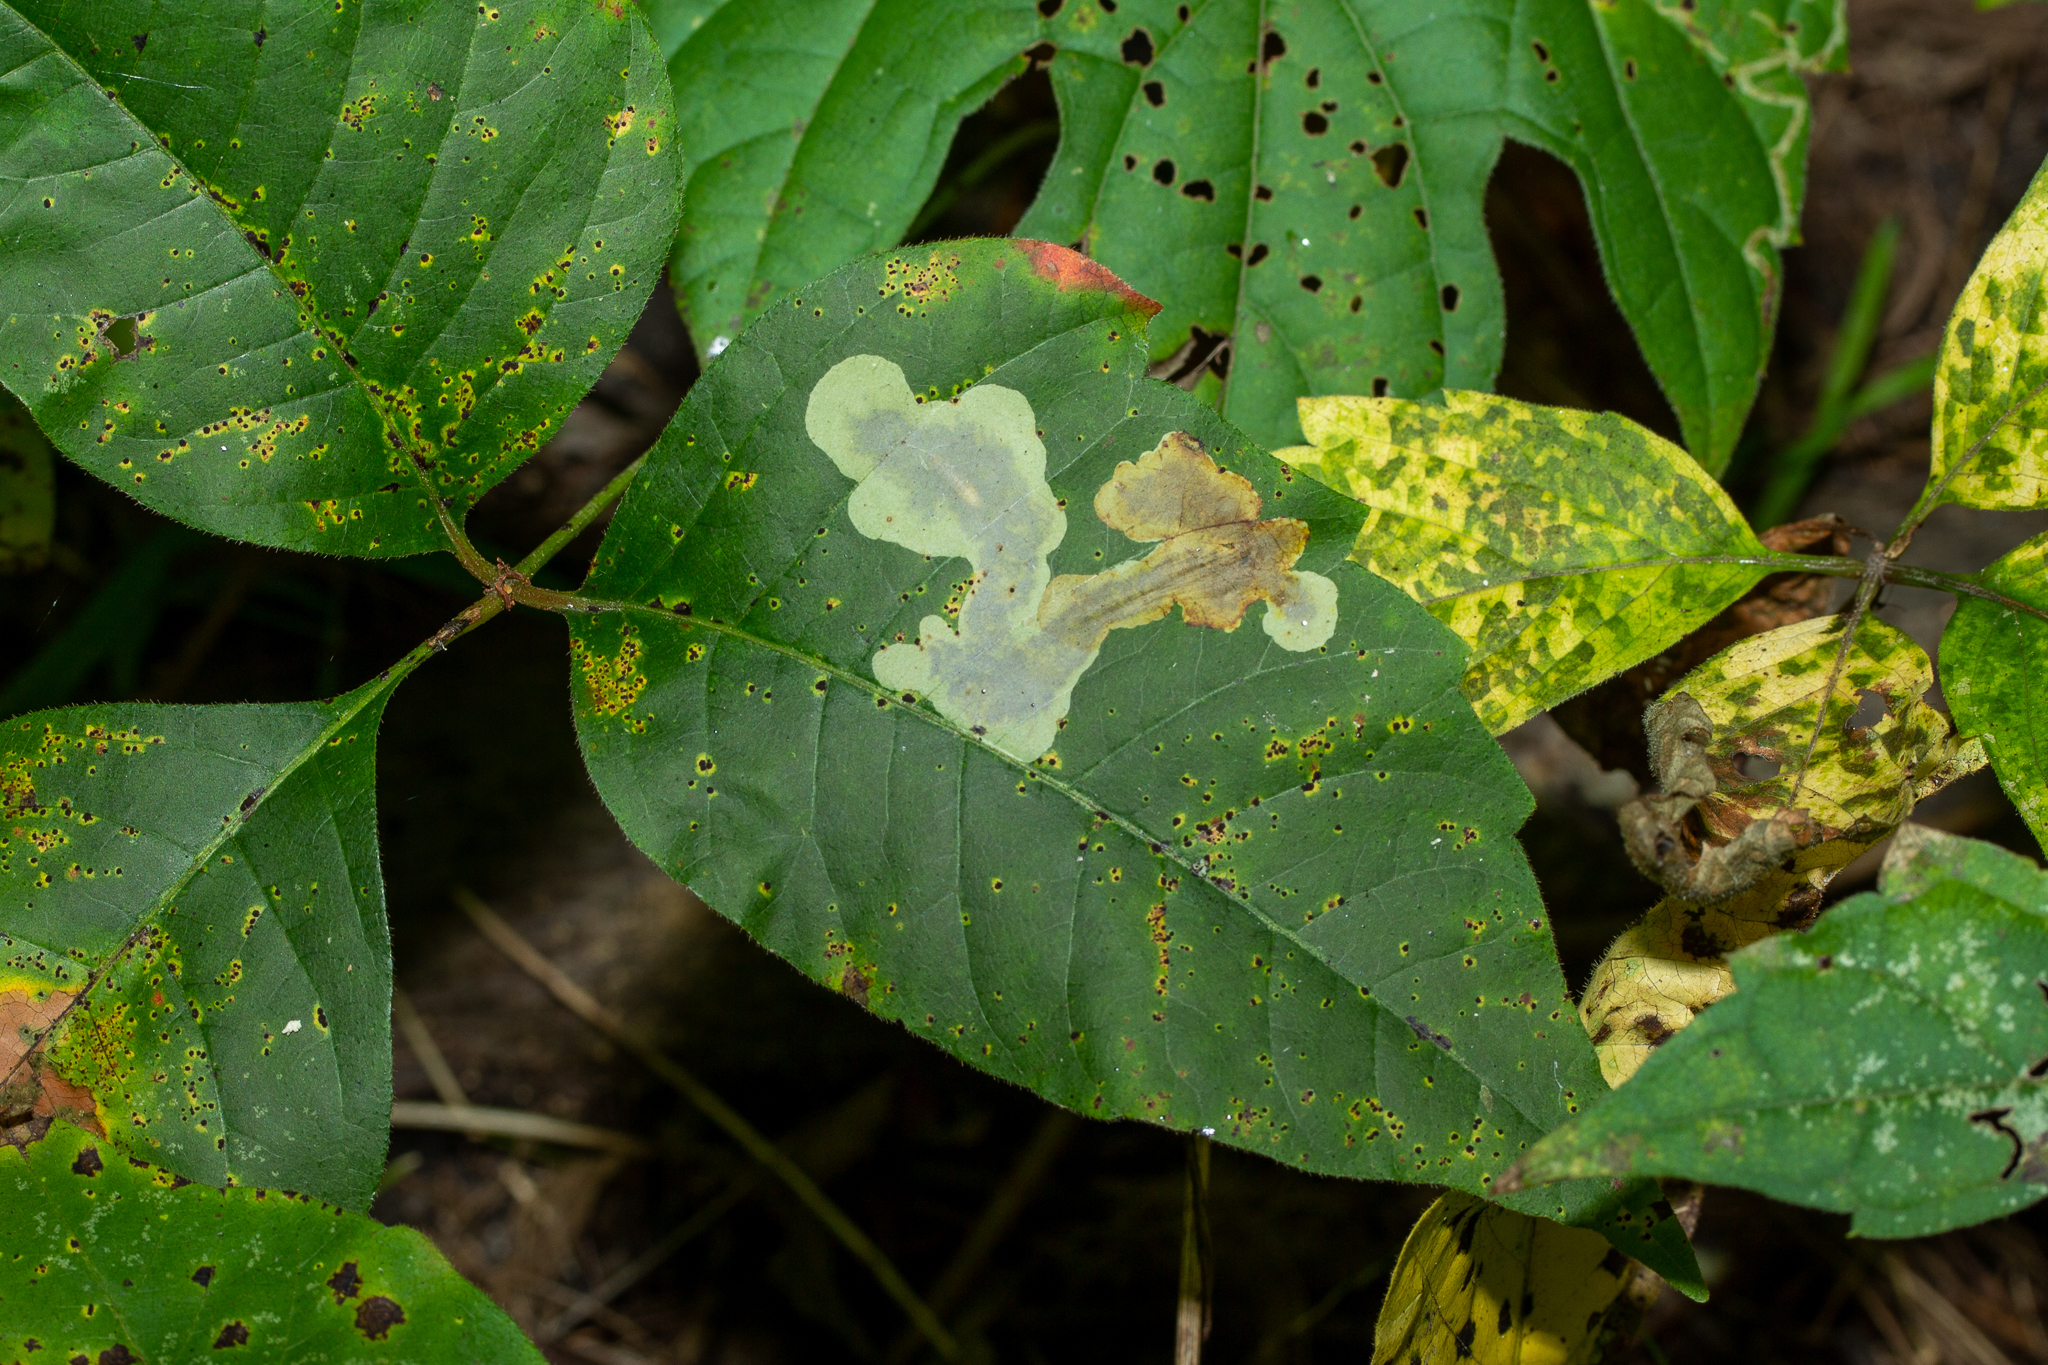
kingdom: Animalia
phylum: Arthropoda
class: Insecta
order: Lepidoptera
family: Gracillariidae
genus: Cameraria
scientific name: Cameraria guttifinitella
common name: Poison ivy leaf-miner moth
